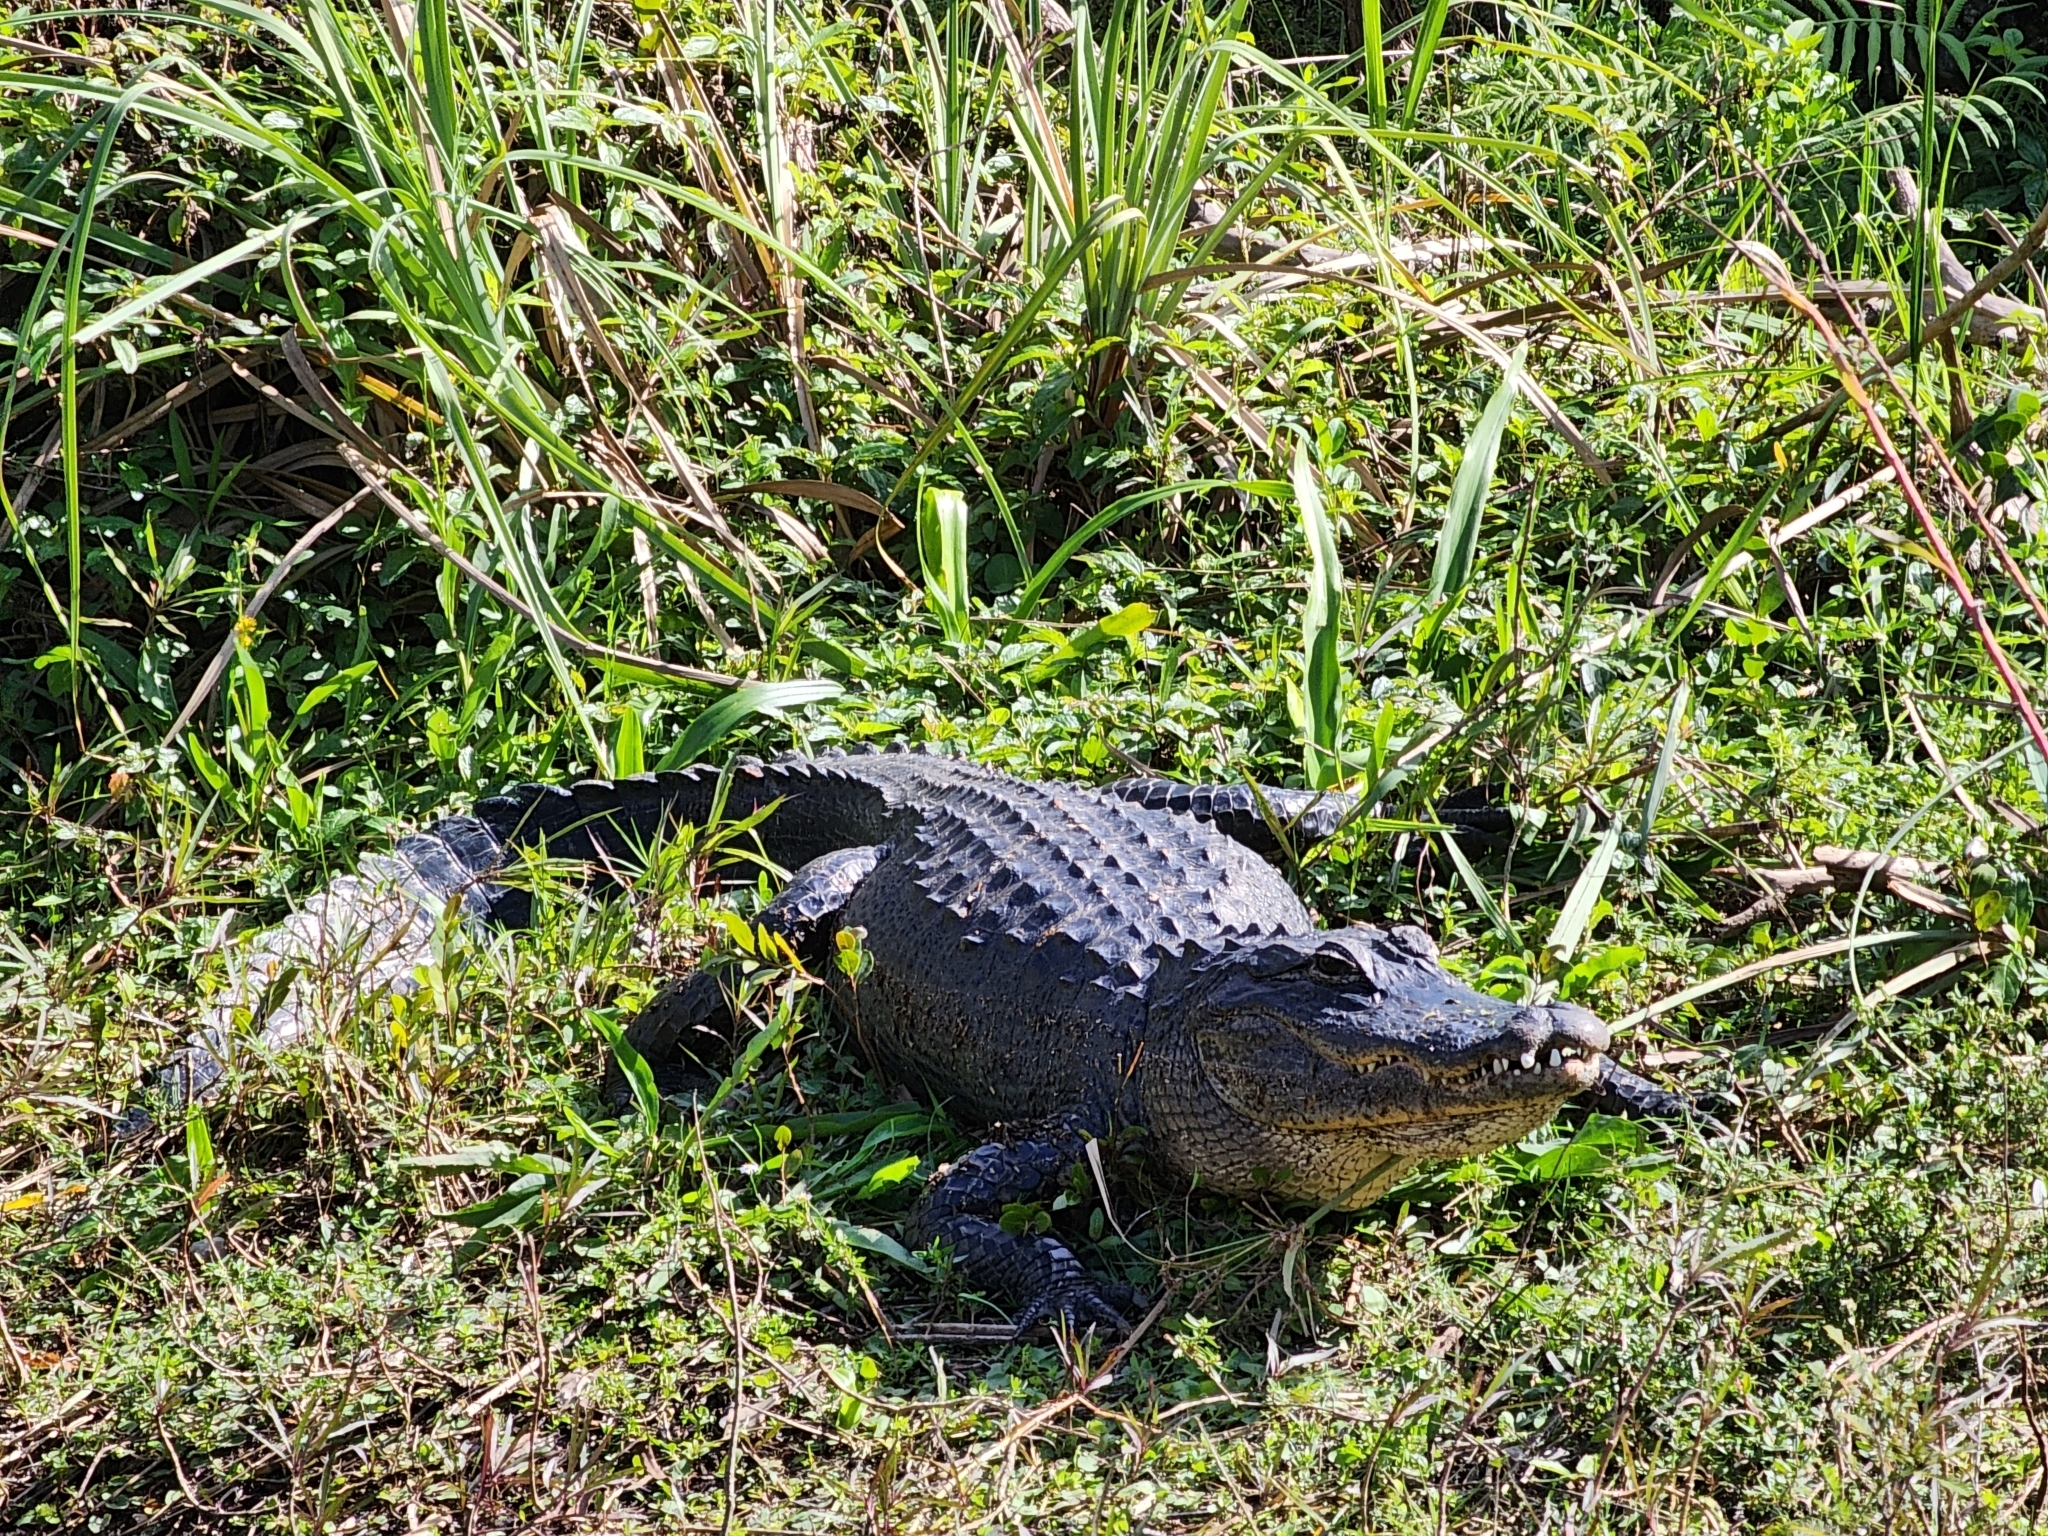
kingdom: Animalia
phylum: Chordata
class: Crocodylia
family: Alligatoridae
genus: Alligator
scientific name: Alligator mississippiensis
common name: American alligator
